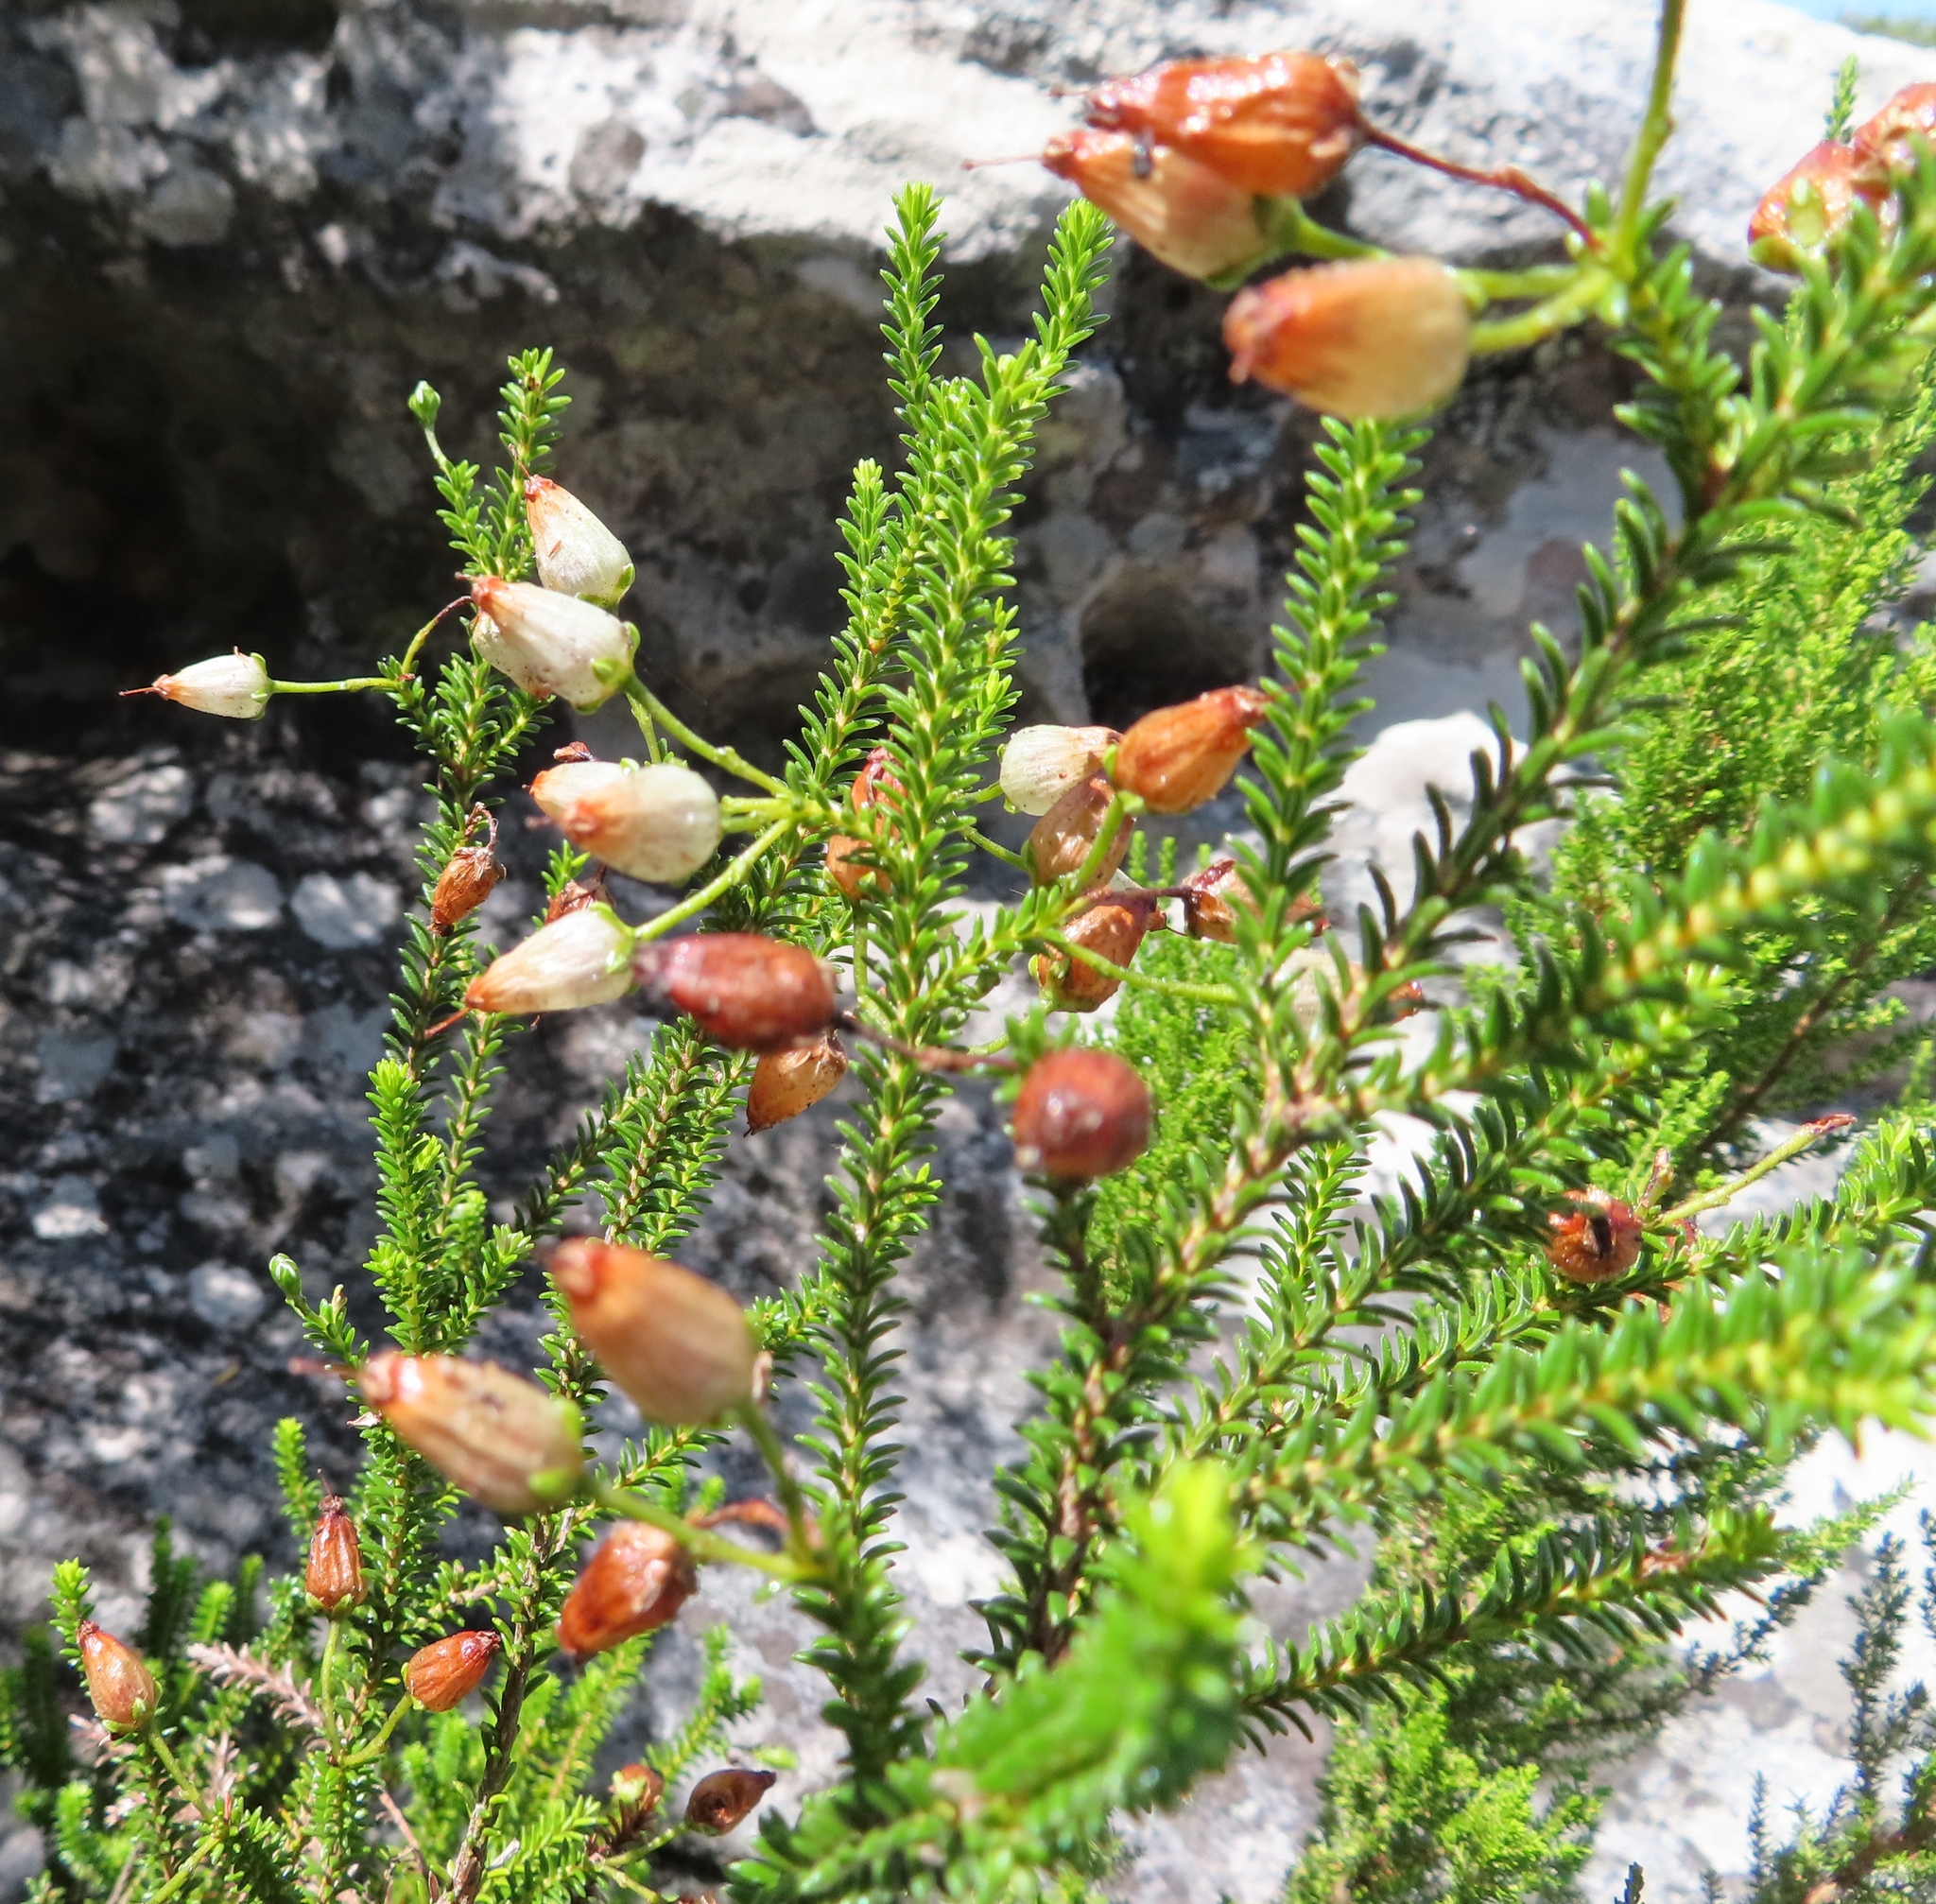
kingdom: Plantae
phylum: Tracheophyta
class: Magnoliopsida
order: Ericales
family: Ericaceae
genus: Erica
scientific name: Erica urna-viridis
